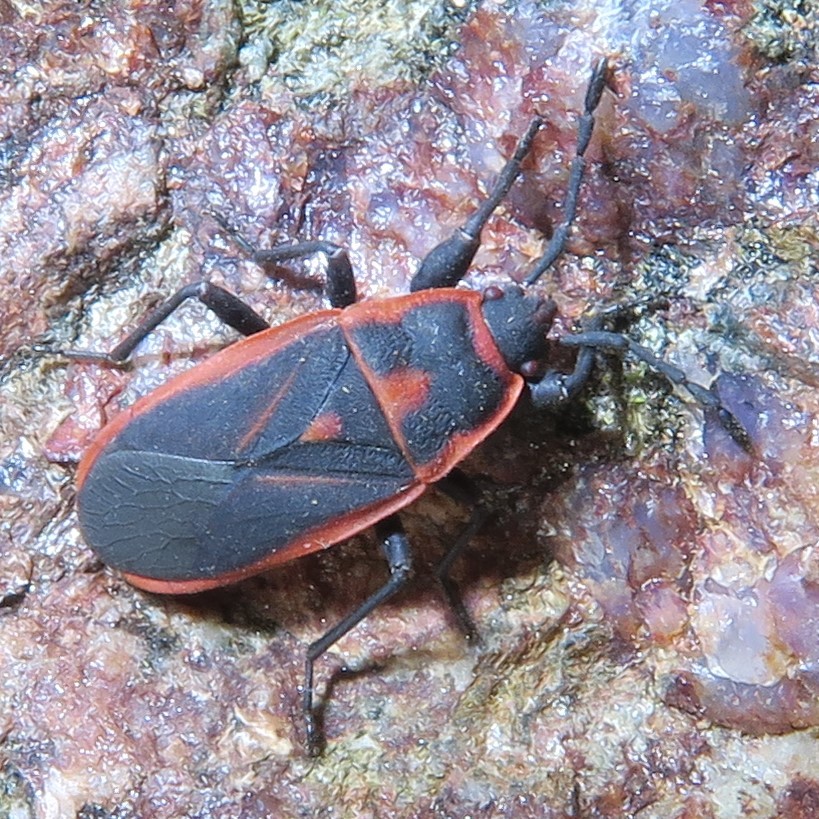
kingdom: Animalia
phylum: Arthropoda
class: Insecta
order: Hemiptera
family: Pyrrhocoridae
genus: Scantius
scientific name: Scantius forsteri
